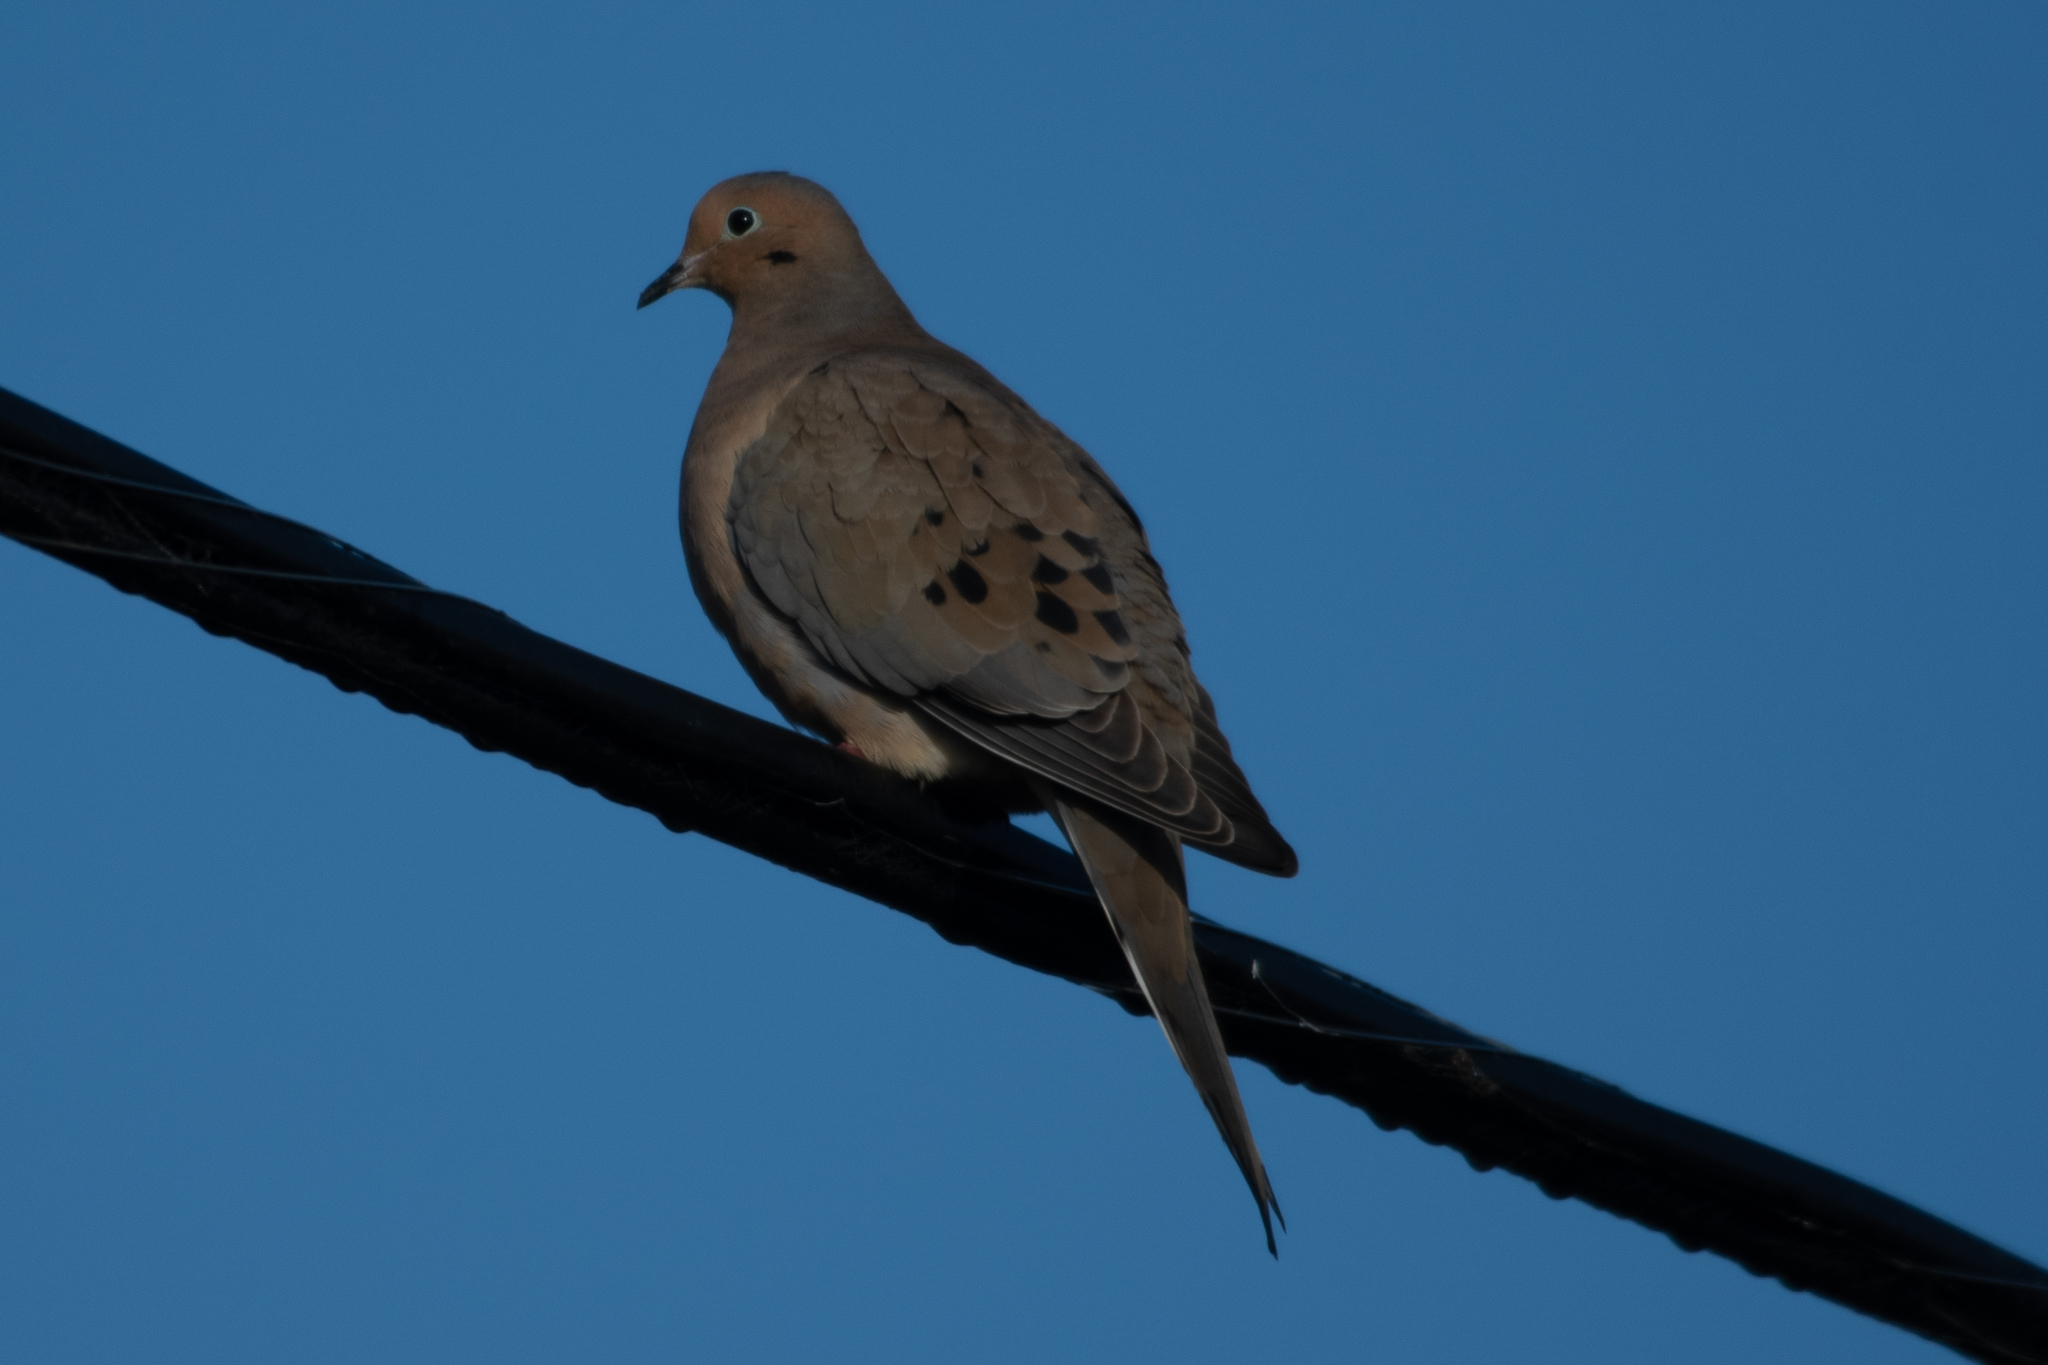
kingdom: Animalia
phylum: Chordata
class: Aves
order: Columbiformes
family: Columbidae
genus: Zenaida
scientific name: Zenaida macroura
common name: Mourning dove
